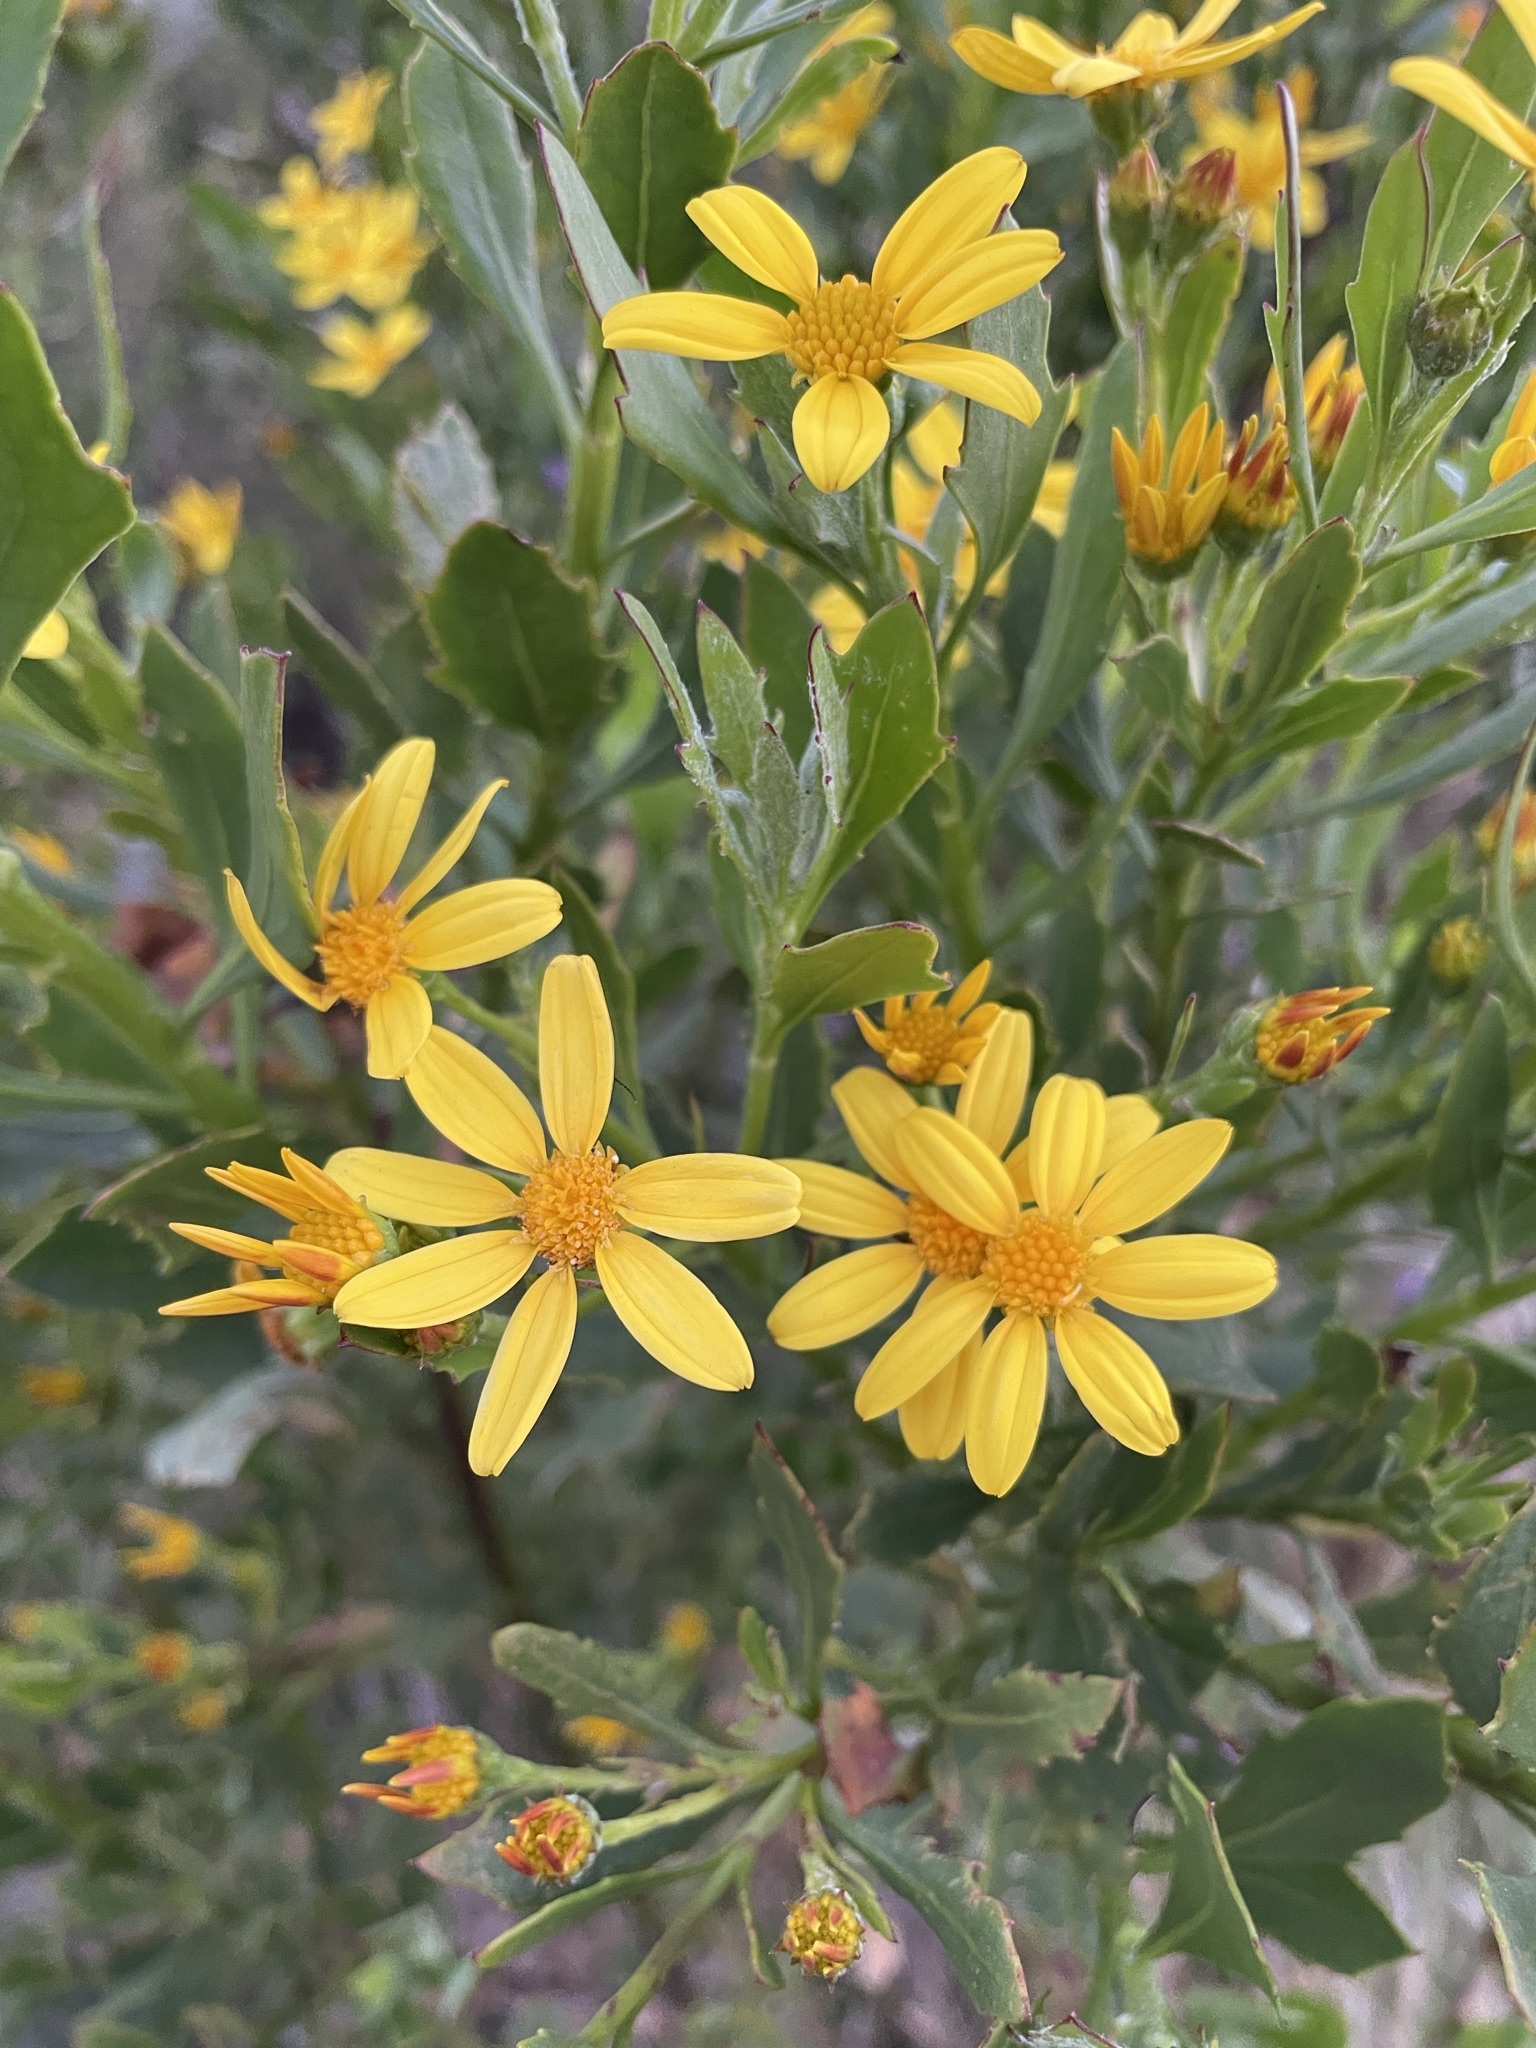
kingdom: Plantae
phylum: Tracheophyta
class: Magnoliopsida
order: Asterales
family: Asteraceae
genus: Osteospermum
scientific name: Osteospermum moniliferum
